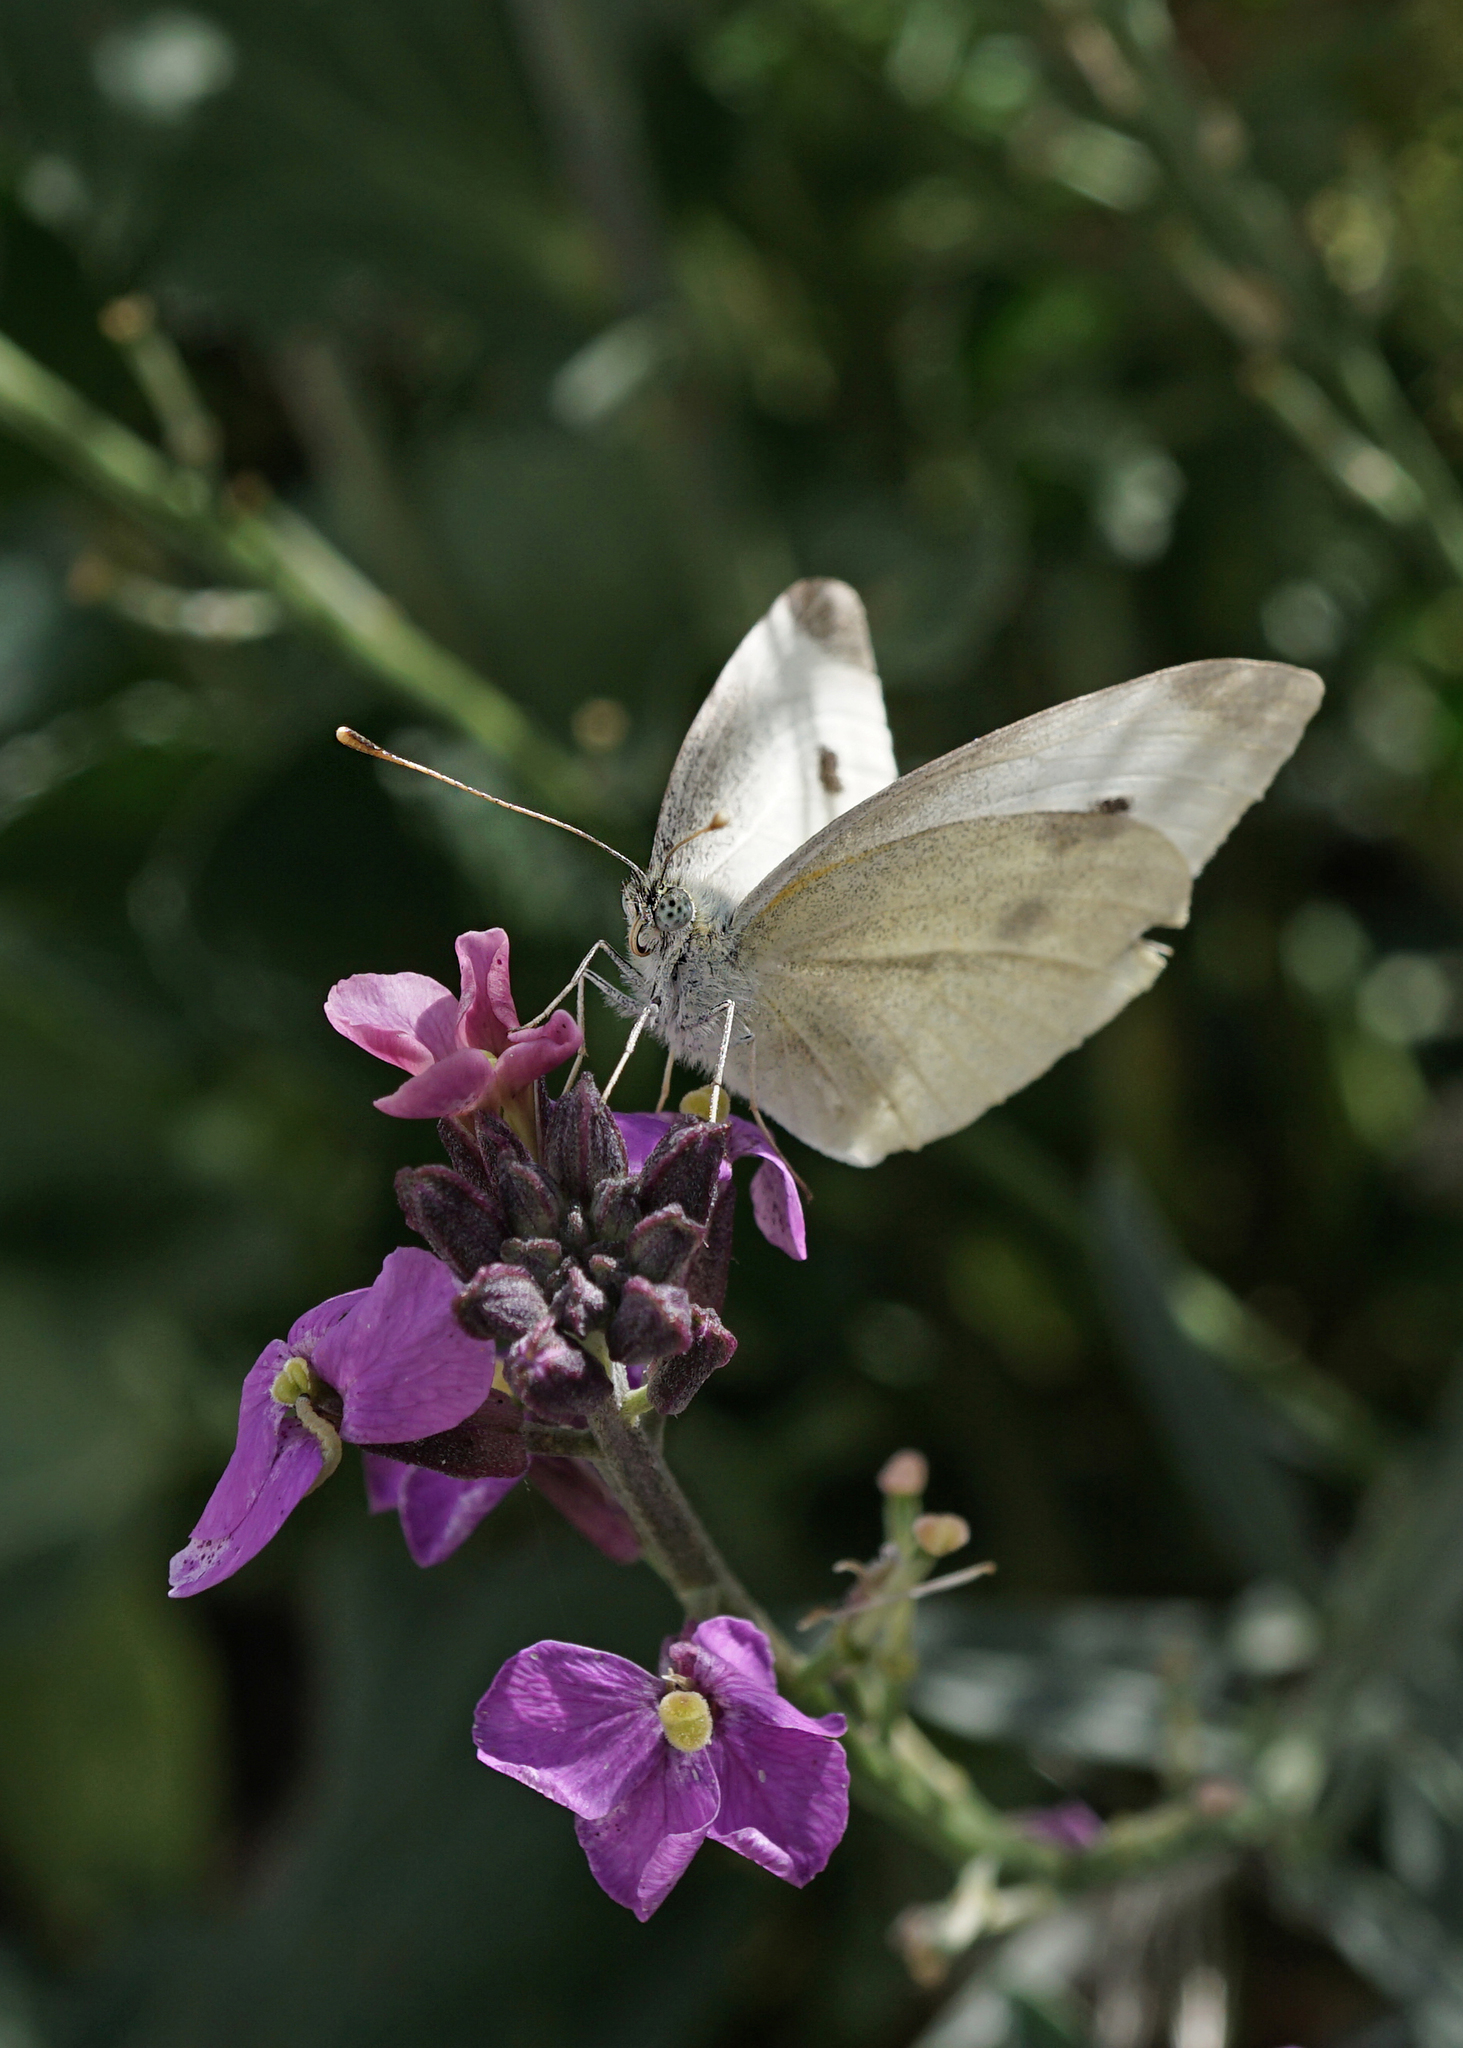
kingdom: Animalia
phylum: Arthropoda
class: Insecta
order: Lepidoptera
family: Pieridae
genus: Pieris
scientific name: Pieris rapae
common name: Small white
